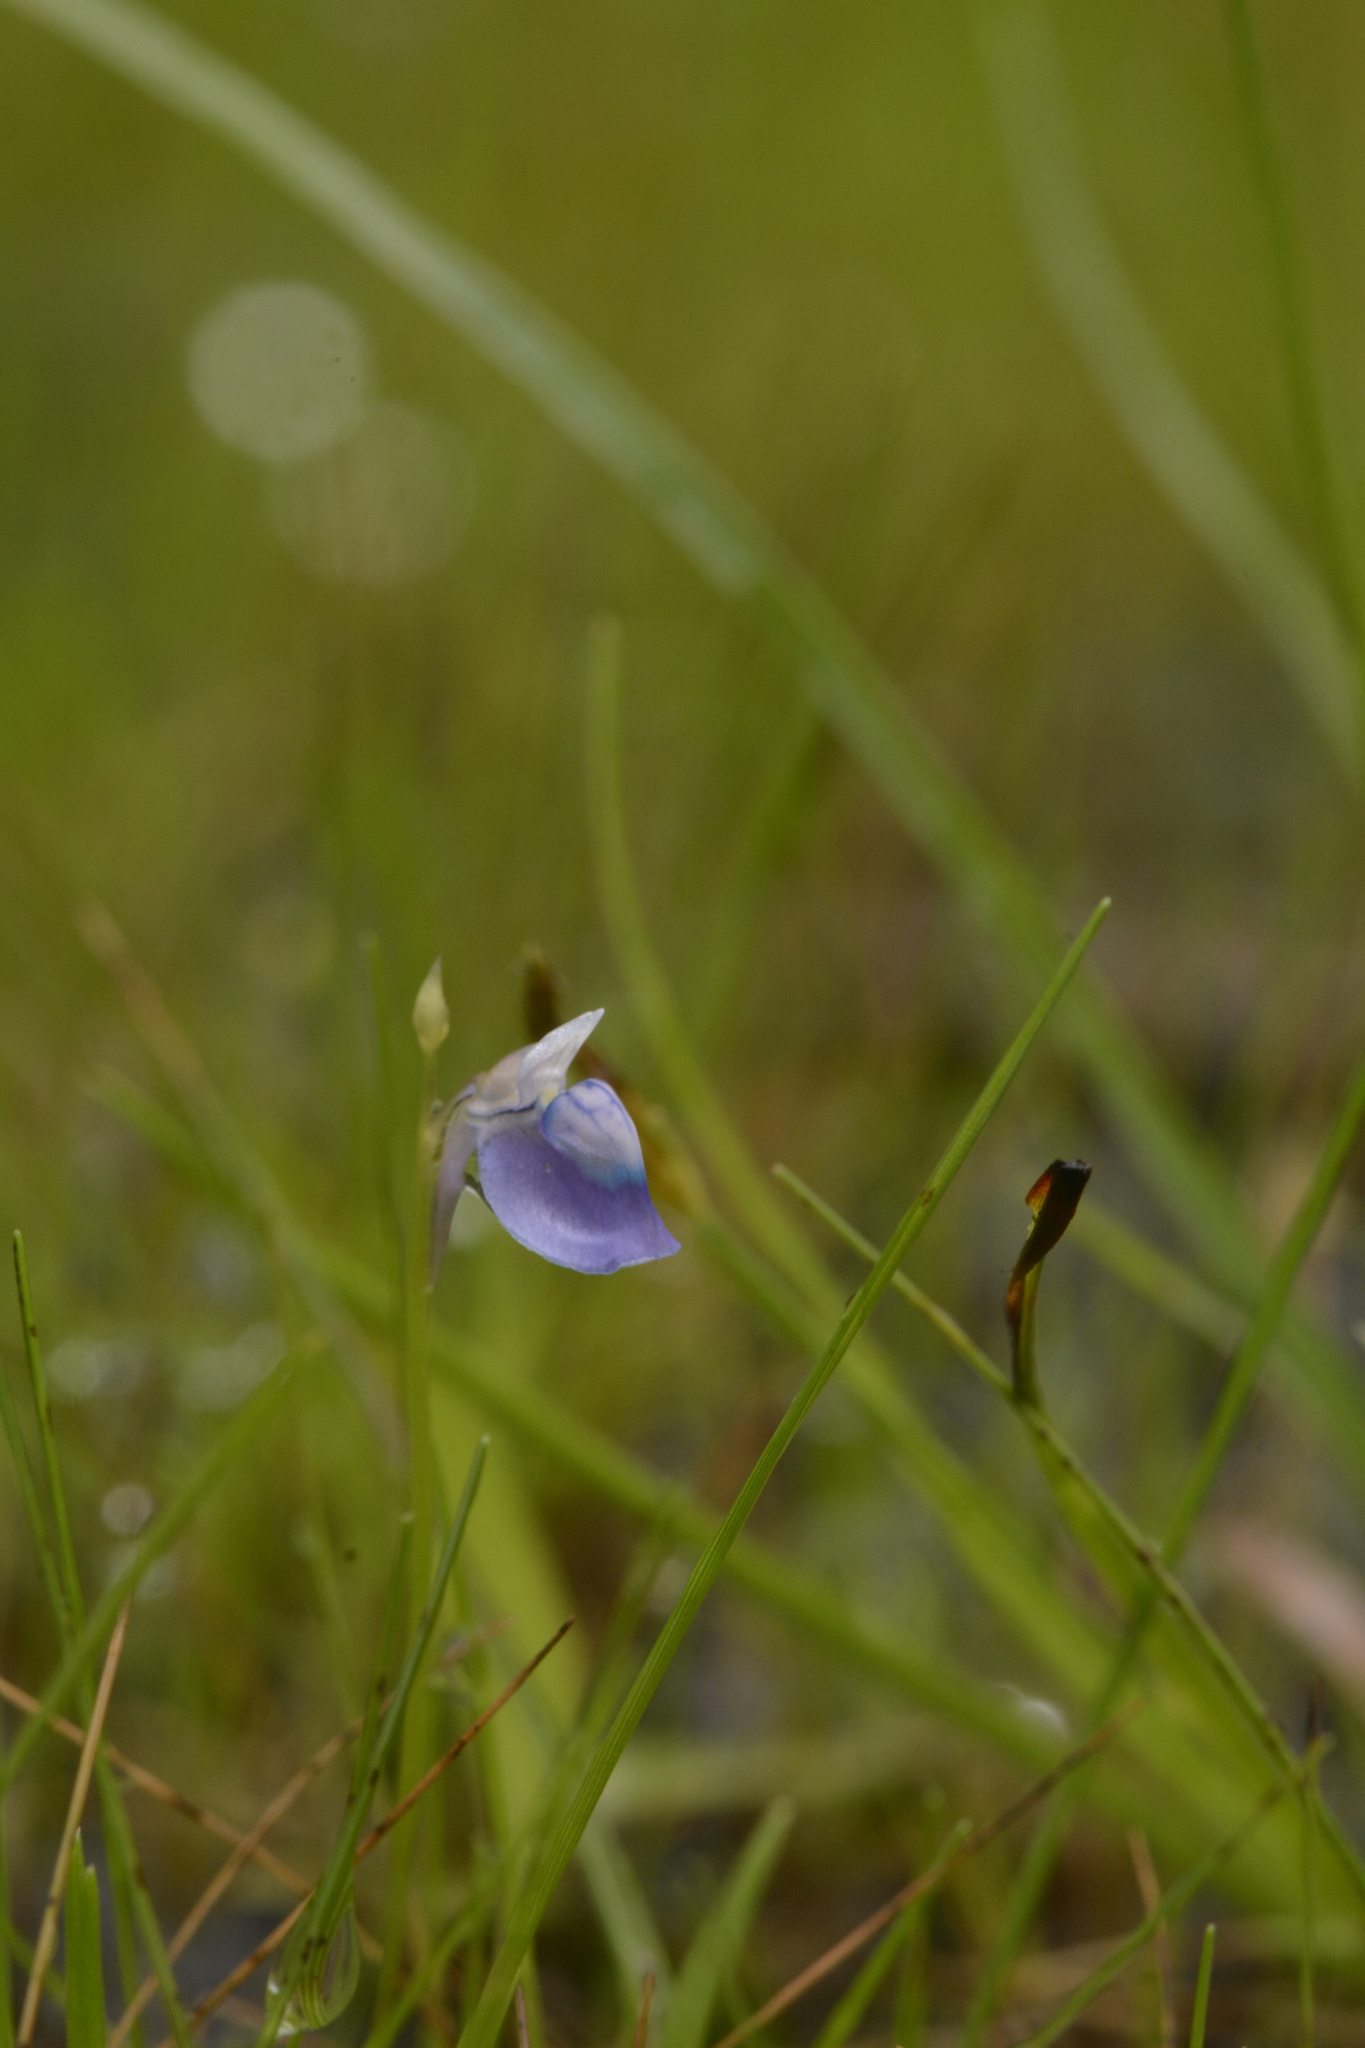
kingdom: Plantae
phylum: Tracheophyta
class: Magnoliopsida
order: Lamiales
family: Lentibulariaceae
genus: Utricularia
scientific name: Utricularia praeterita
